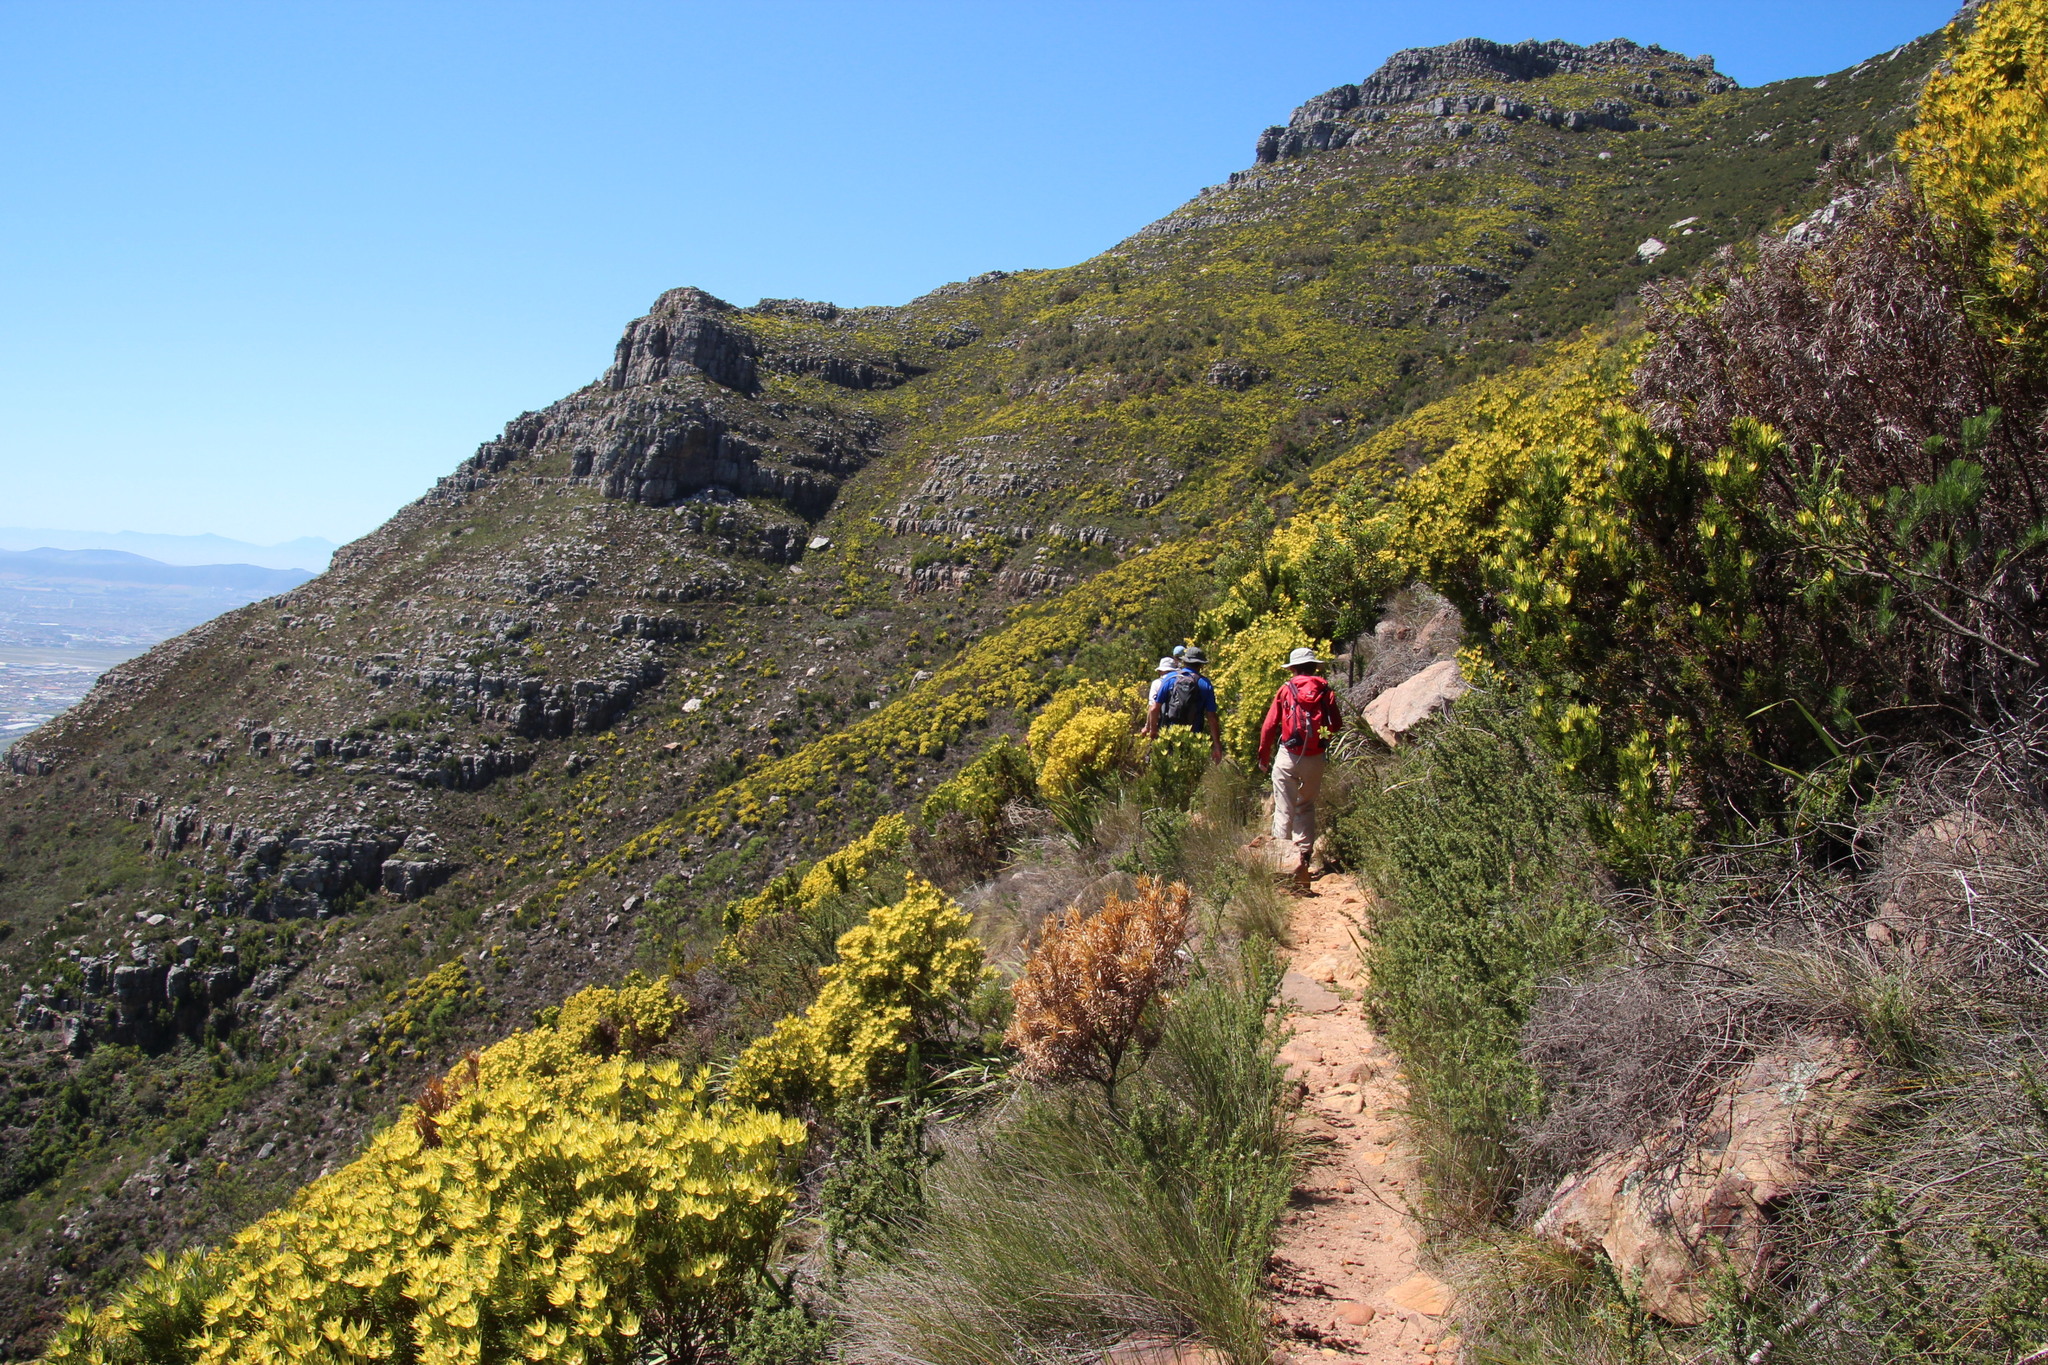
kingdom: Plantae
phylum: Tracheophyta
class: Magnoliopsida
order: Proteales
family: Proteaceae
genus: Leucadendron
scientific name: Leucadendron xanthoconus
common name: Sickle-leaf conebush
